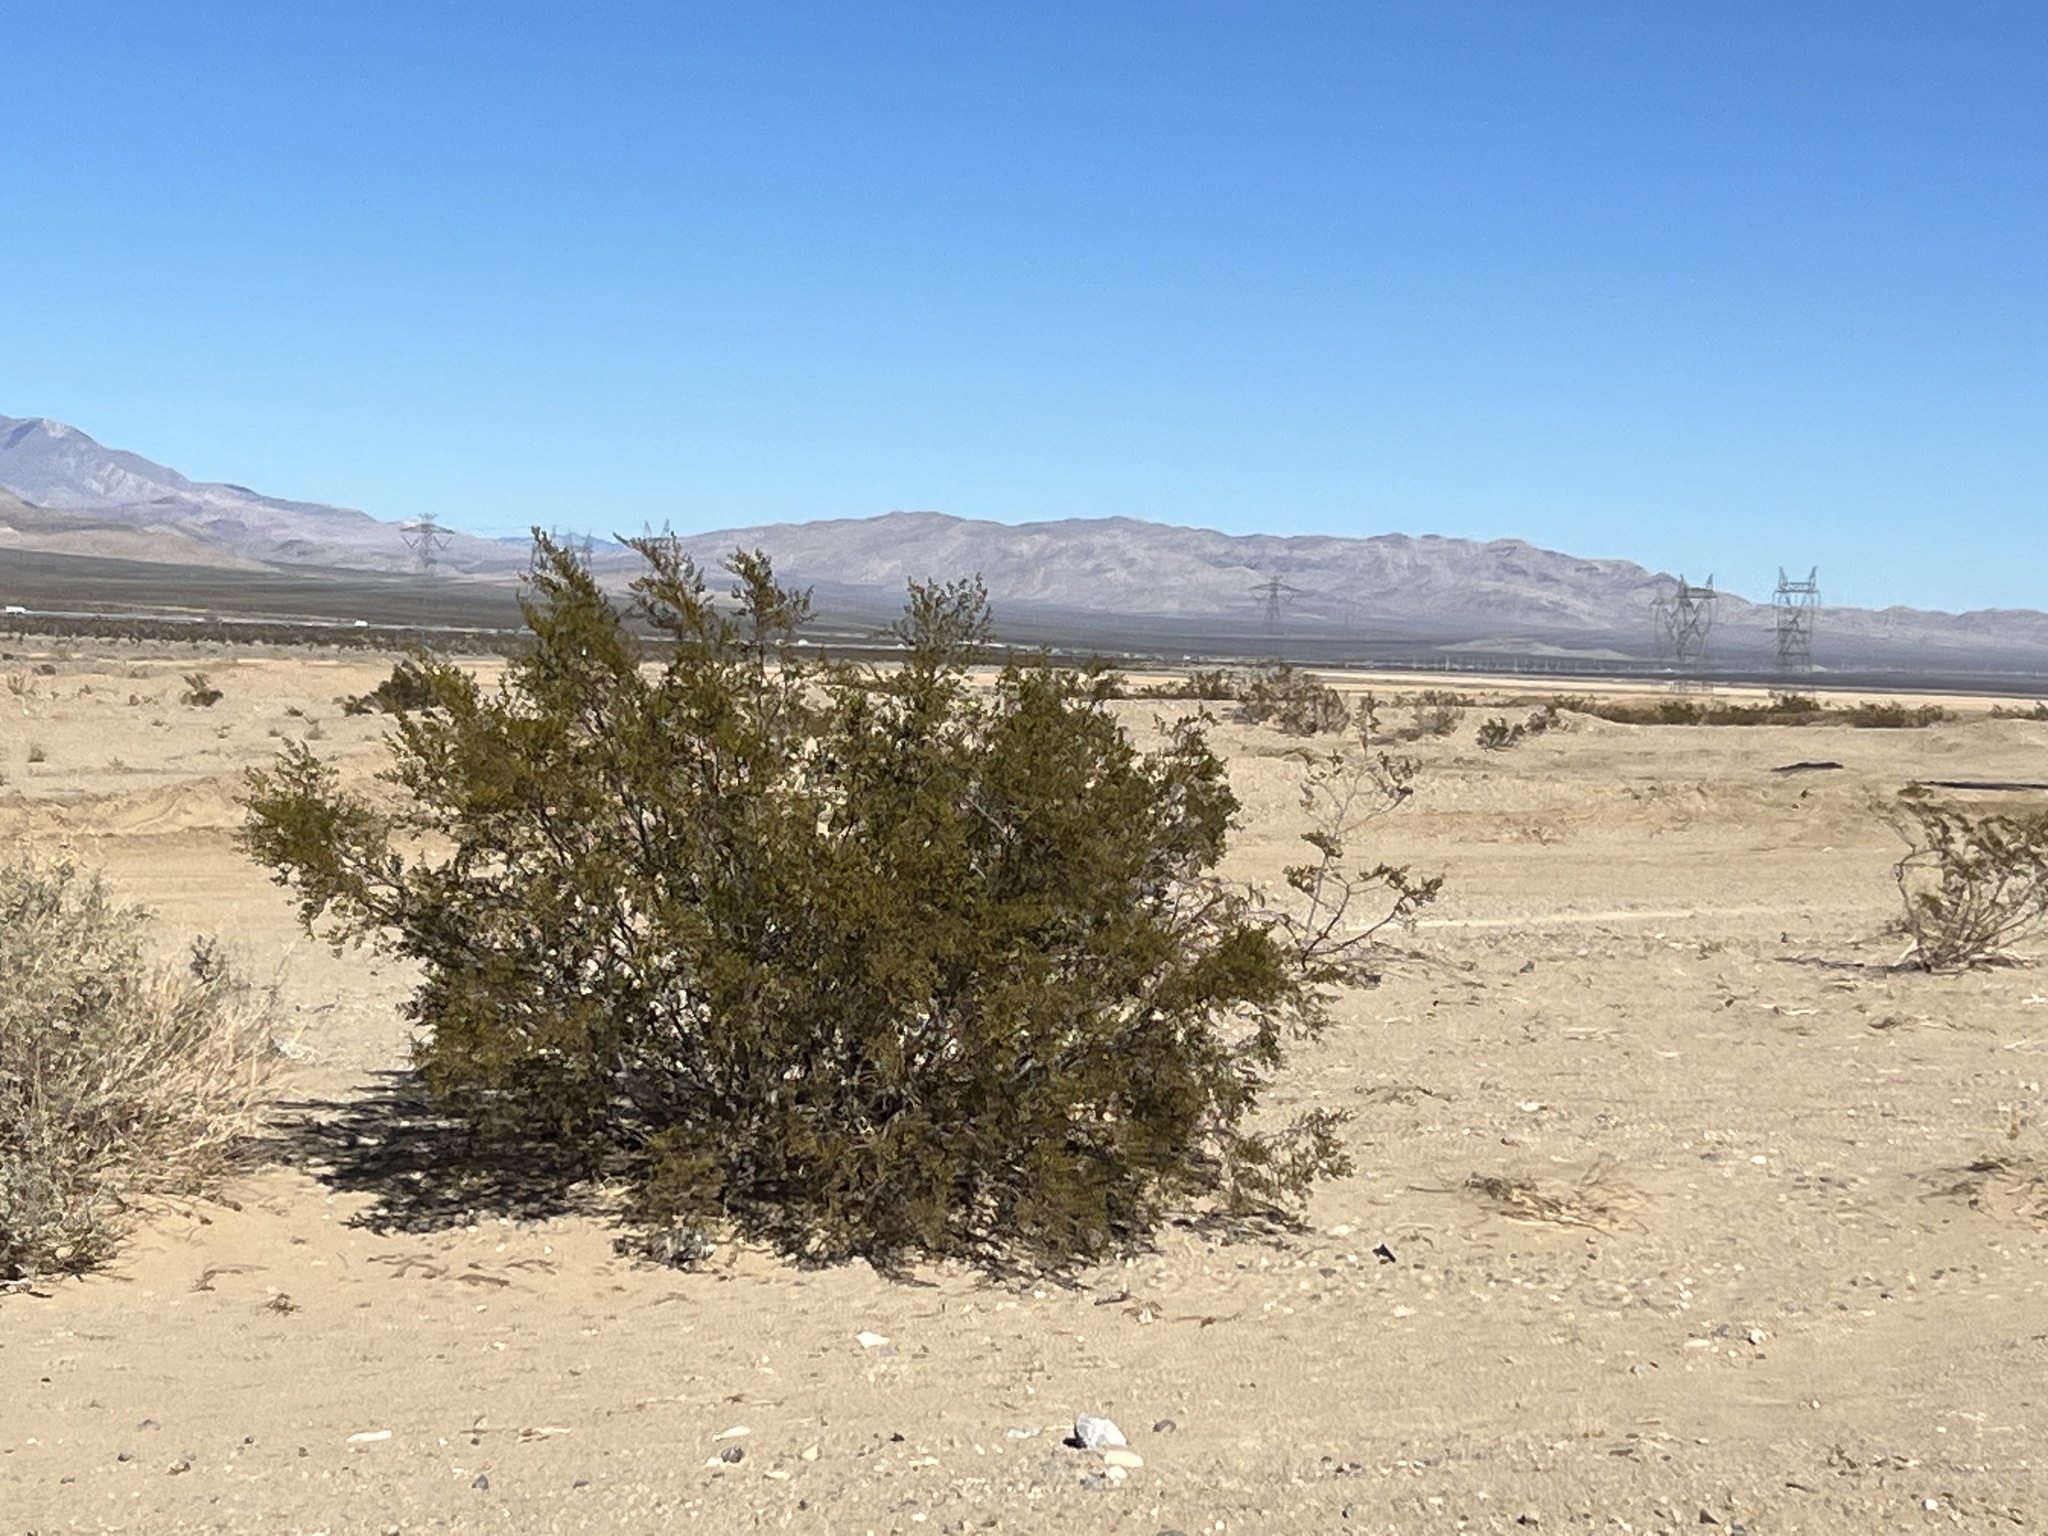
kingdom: Plantae
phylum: Tracheophyta
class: Magnoliopsida
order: Zygophyllales
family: Zygophyllaceae
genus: Larrea
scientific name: Larrea tridentata
